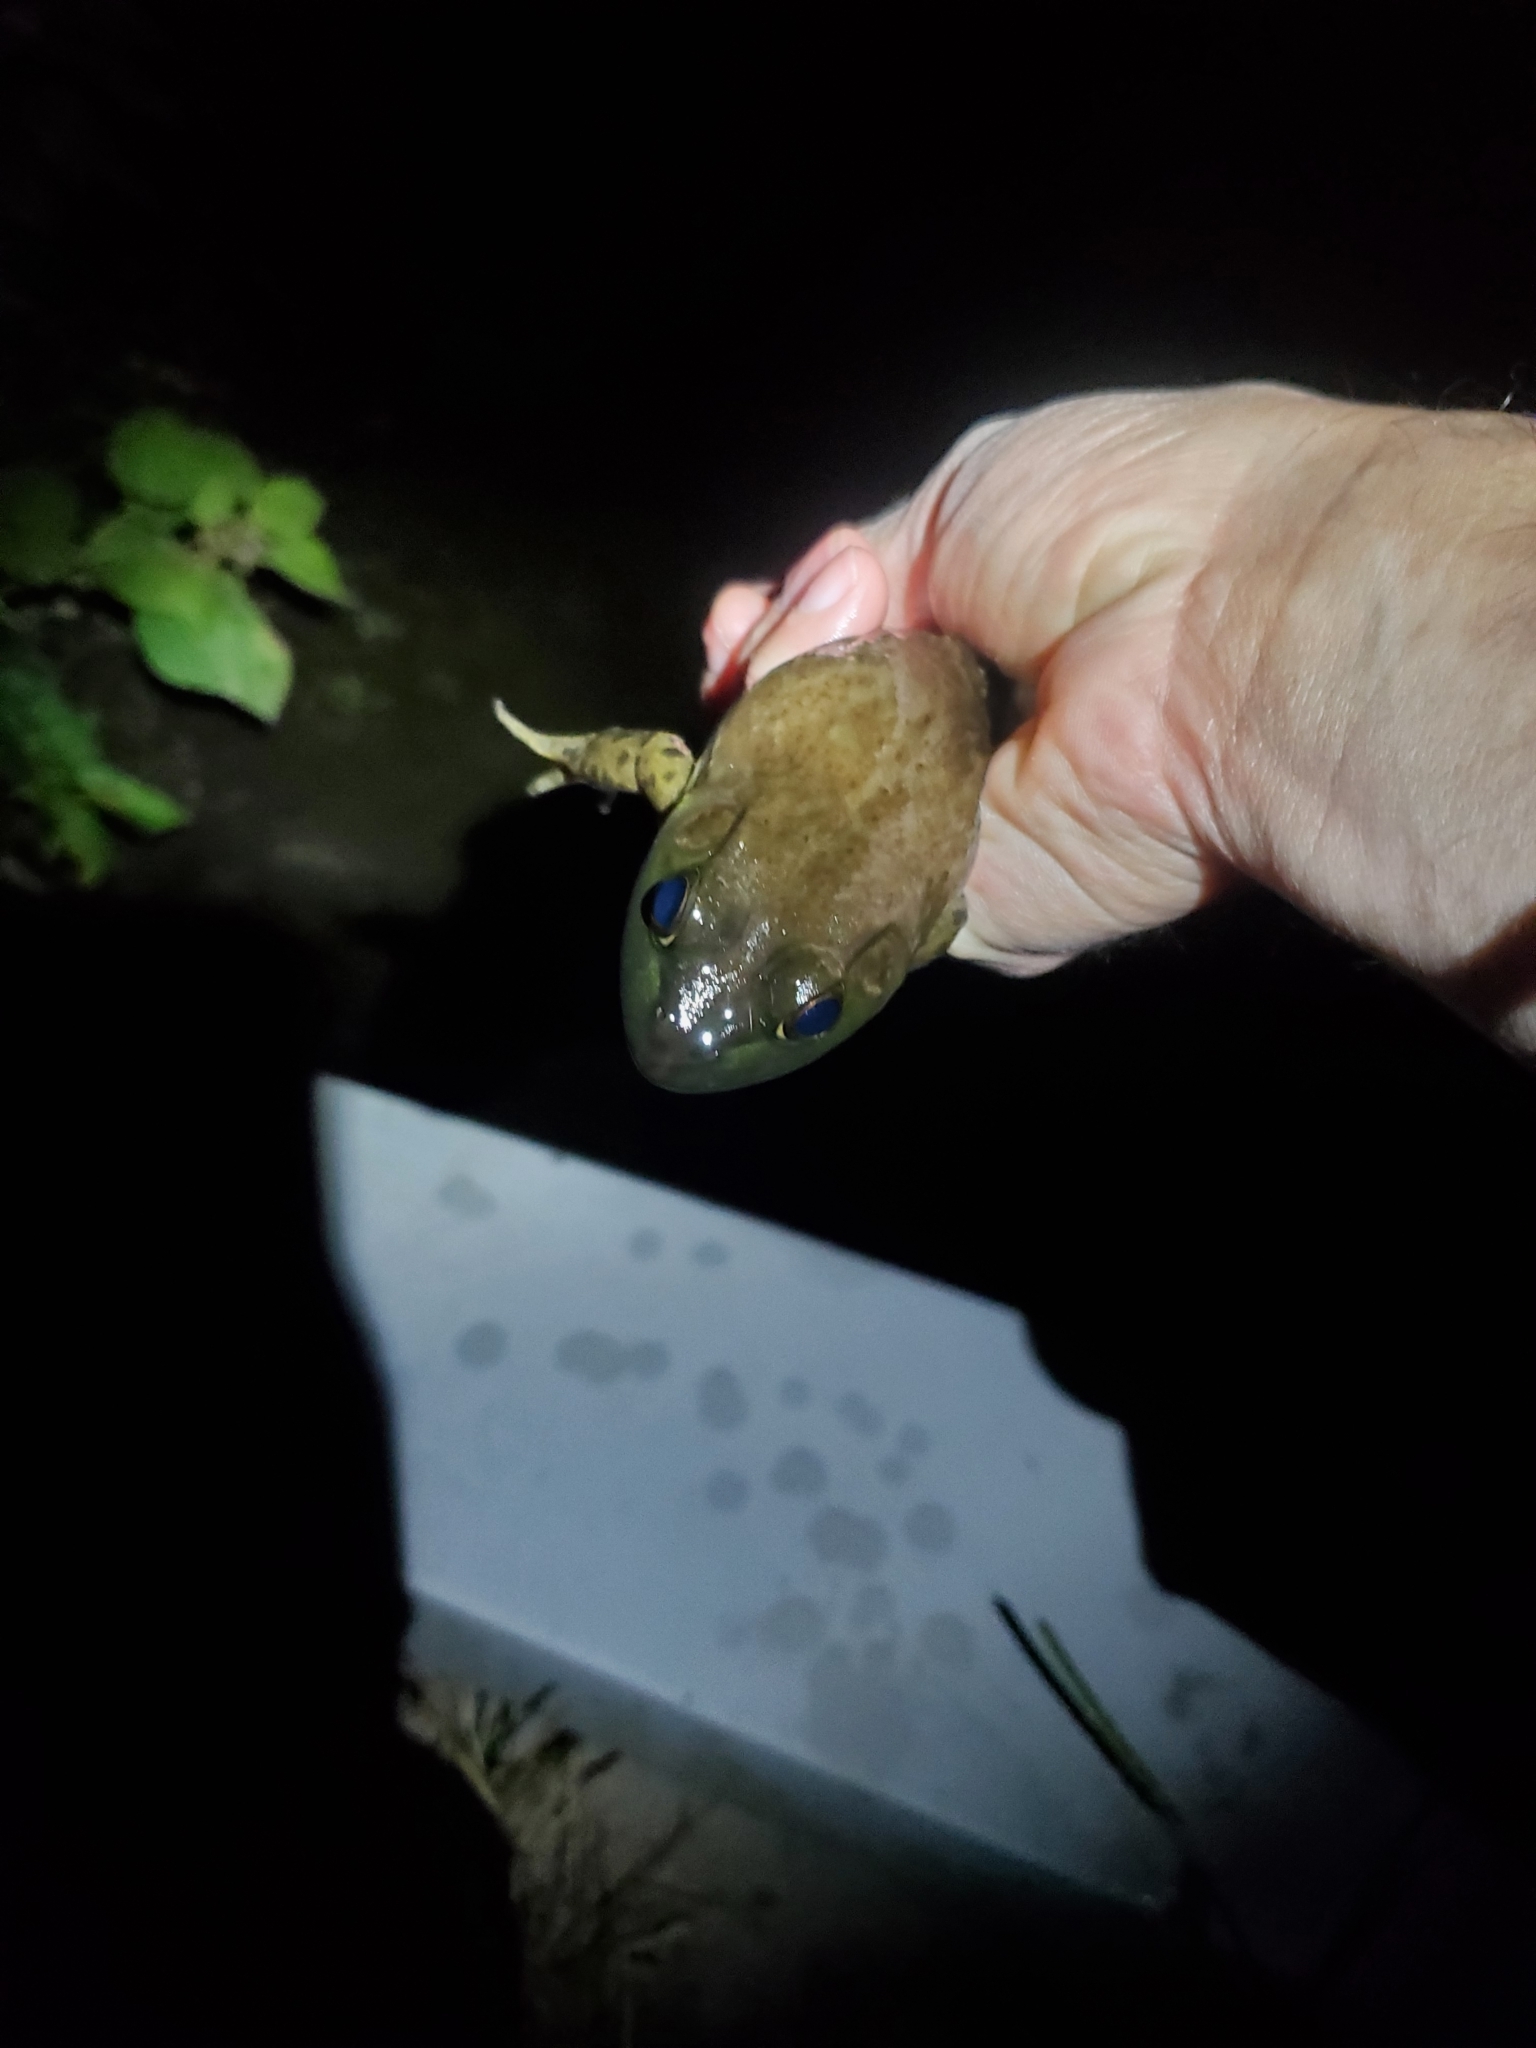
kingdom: Animalia
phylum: Chordata
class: Amphibia
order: Anura
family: Ranidae
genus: Lithobates
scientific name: Lithobates catesbeianus
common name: American bullfrog
